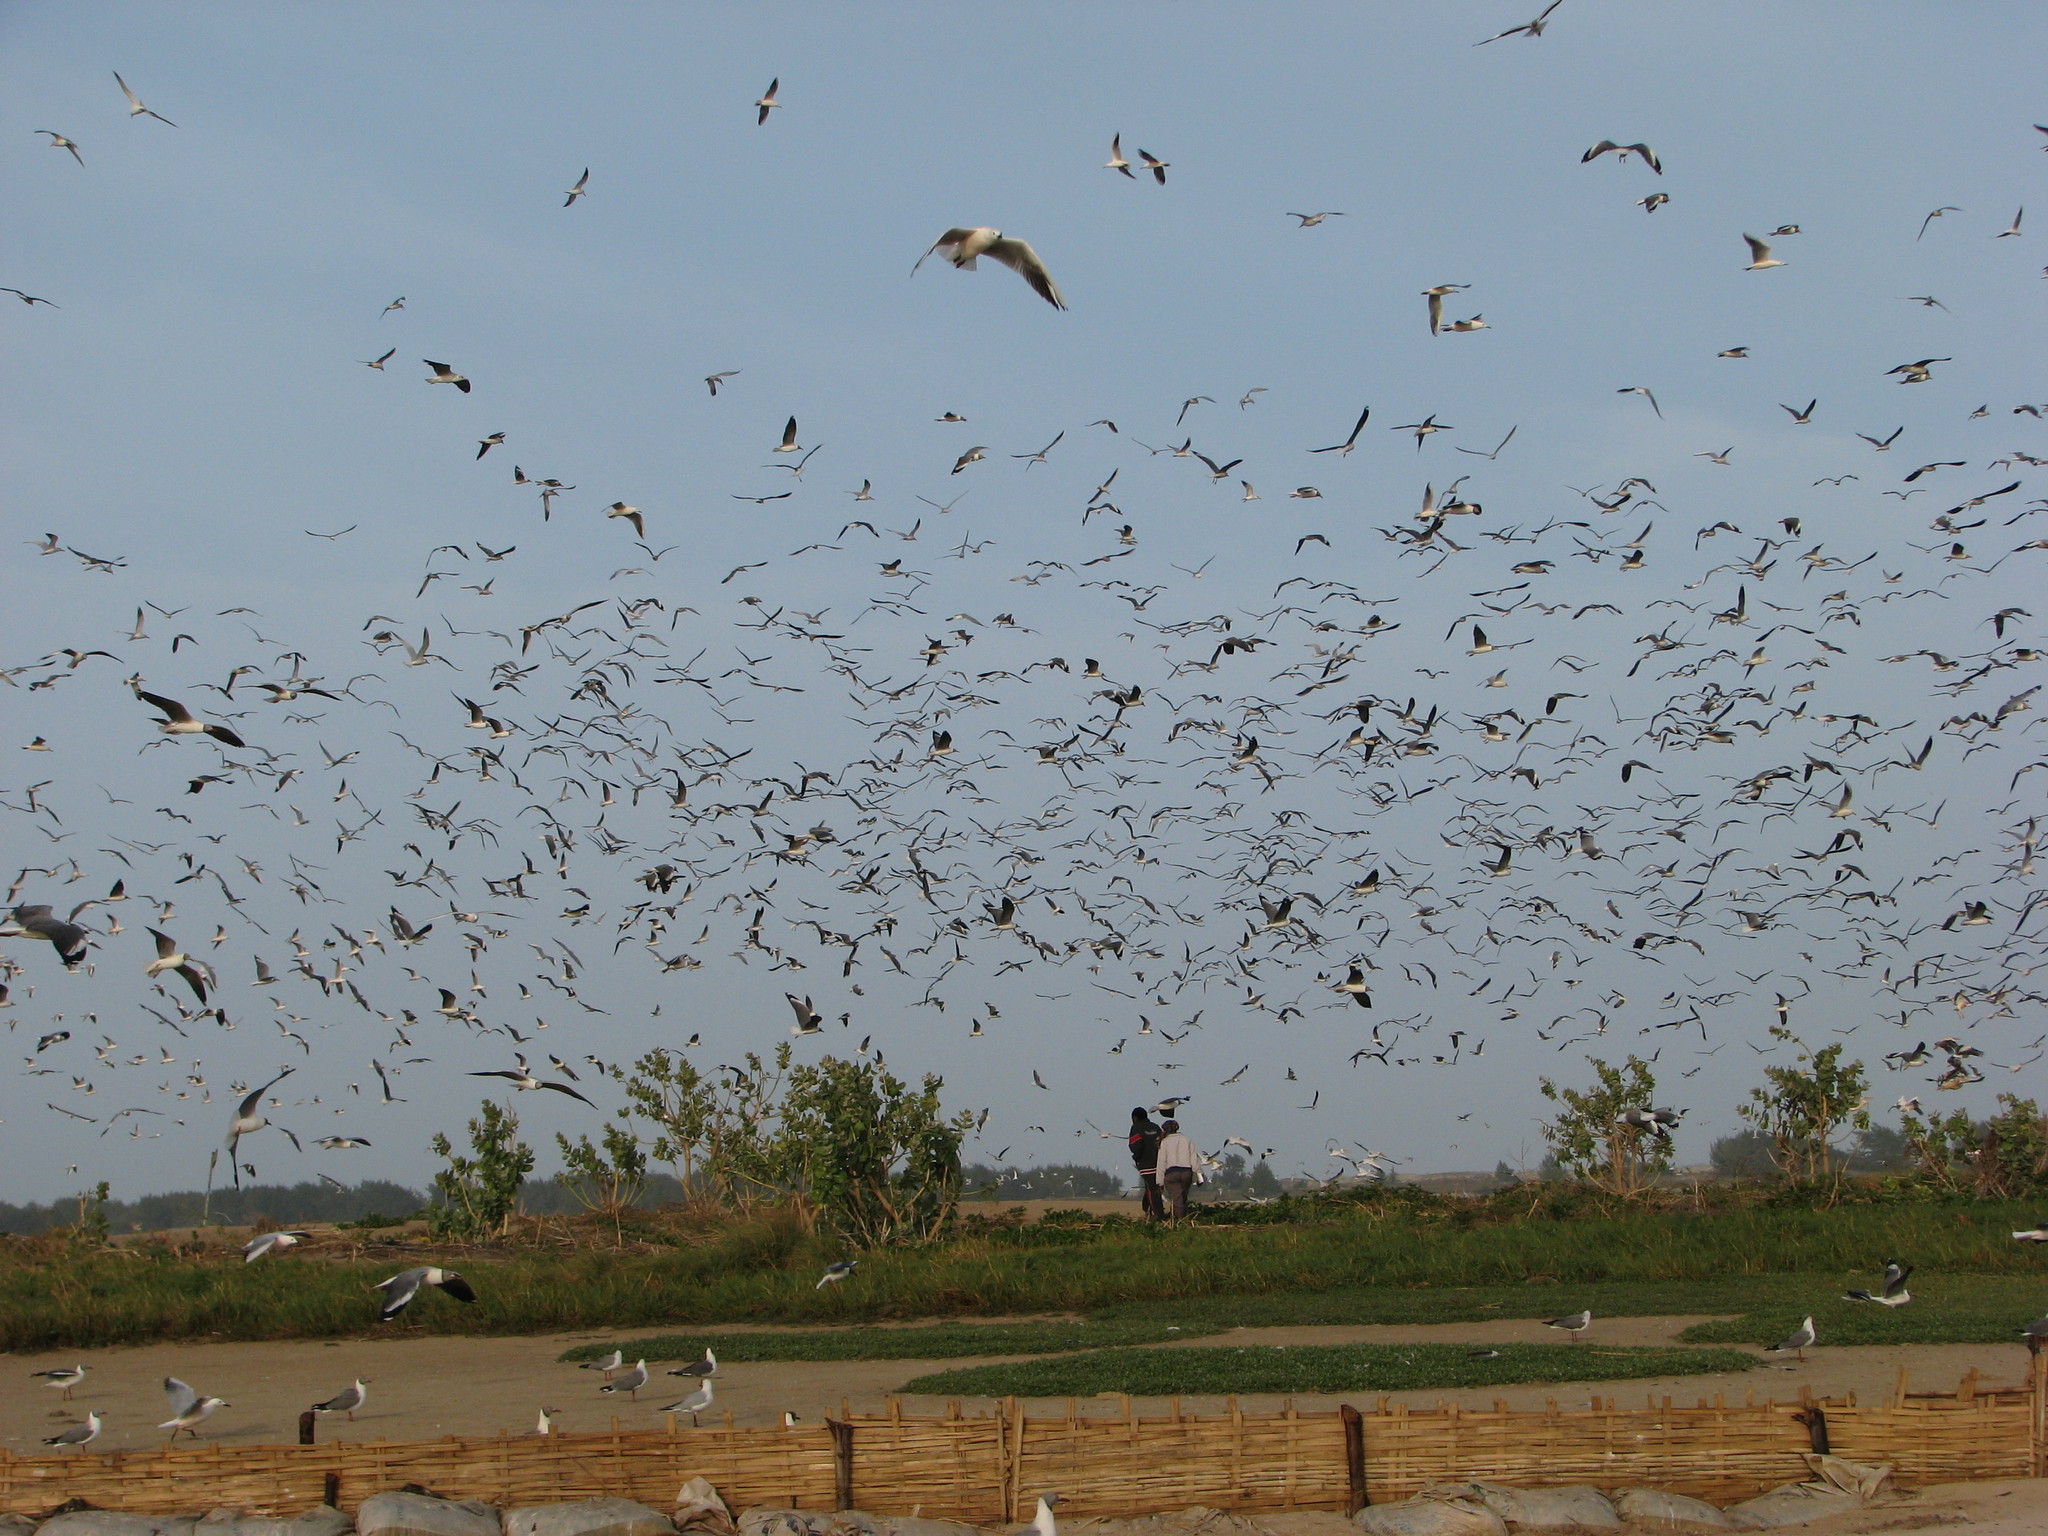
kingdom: Animalia
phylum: Chordata
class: Aves
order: Charadriiformes
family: Laridae
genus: Chroicocephalus
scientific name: Chroicocephalus cirrocephalus
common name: Grey-headed gull
